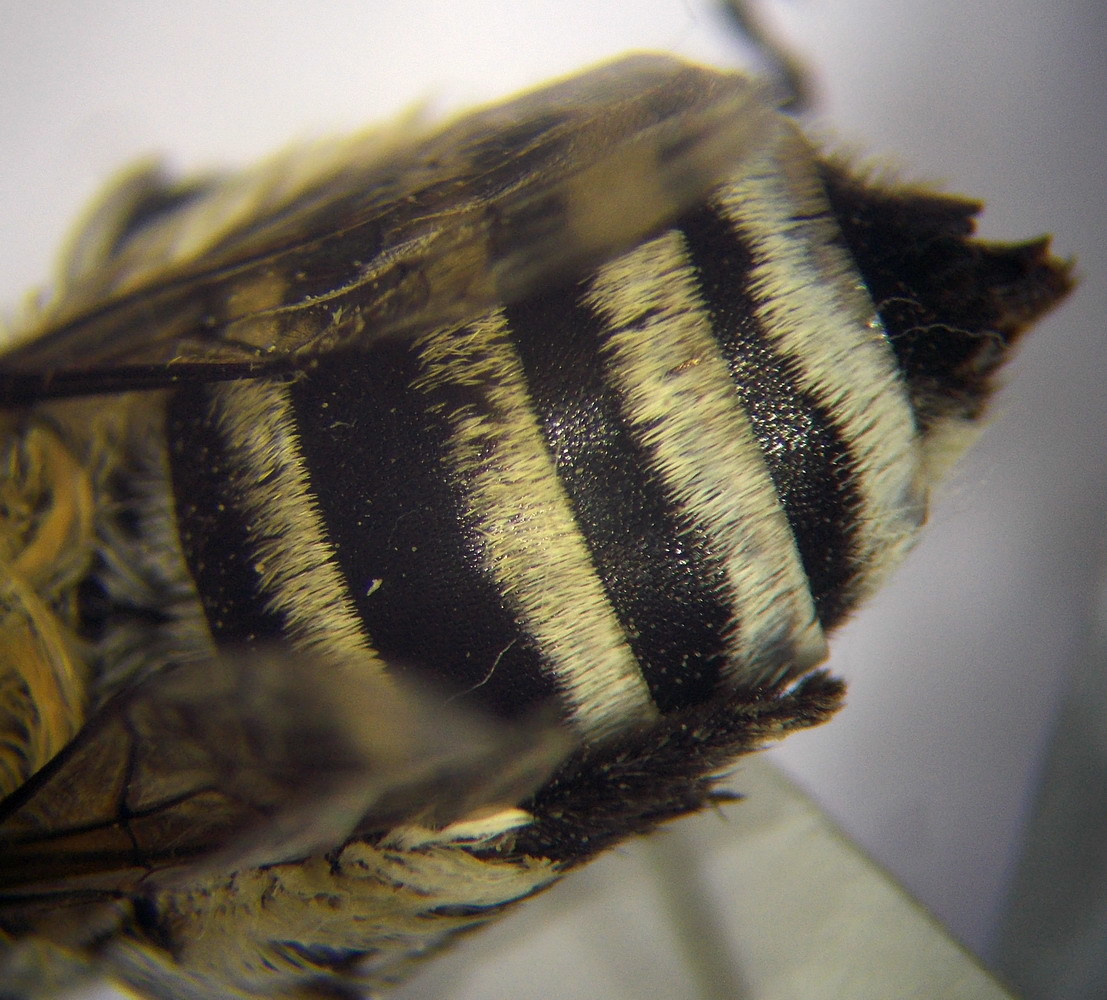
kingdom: Animalia
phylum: Arthropoda
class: Insecta
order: Hymenoptera
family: Apidae
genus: Amegilla
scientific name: Amegilla quadrifasciata
